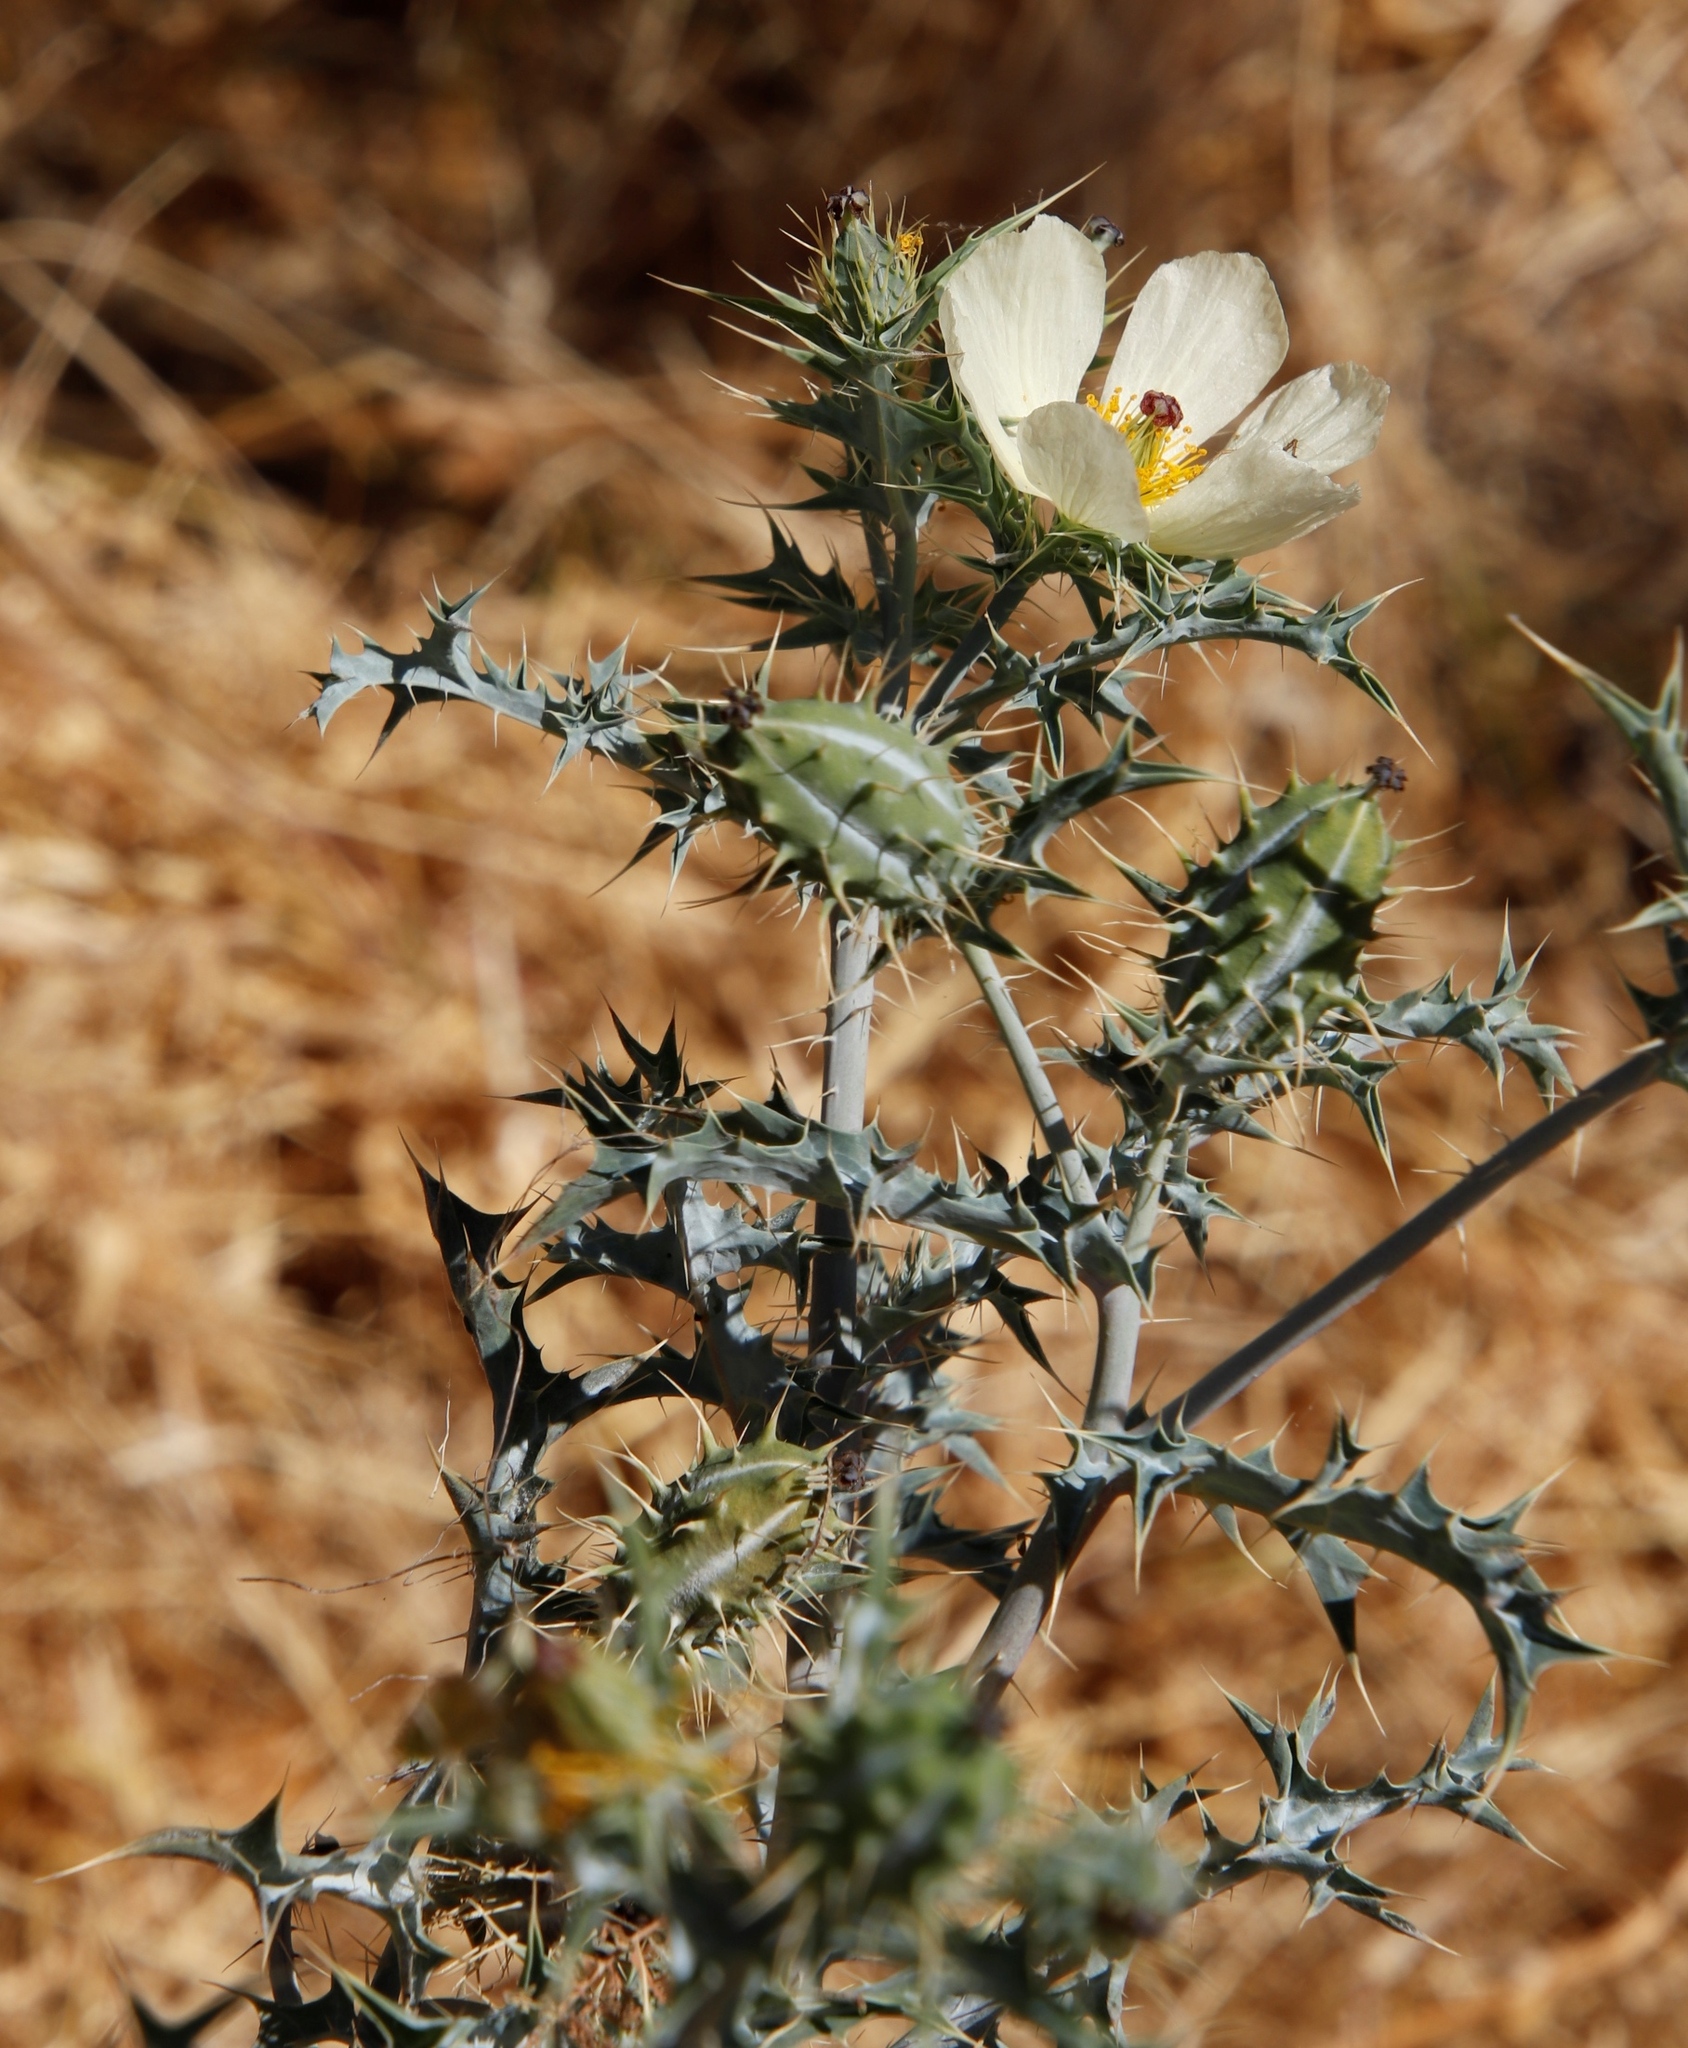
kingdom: Plantae
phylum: Tracheophyta
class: Magnoliopsida
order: Ranunculales
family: Papaveraceae
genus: Argemone
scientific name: Argemone ochroleuca
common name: White-flower mexican-poppy
